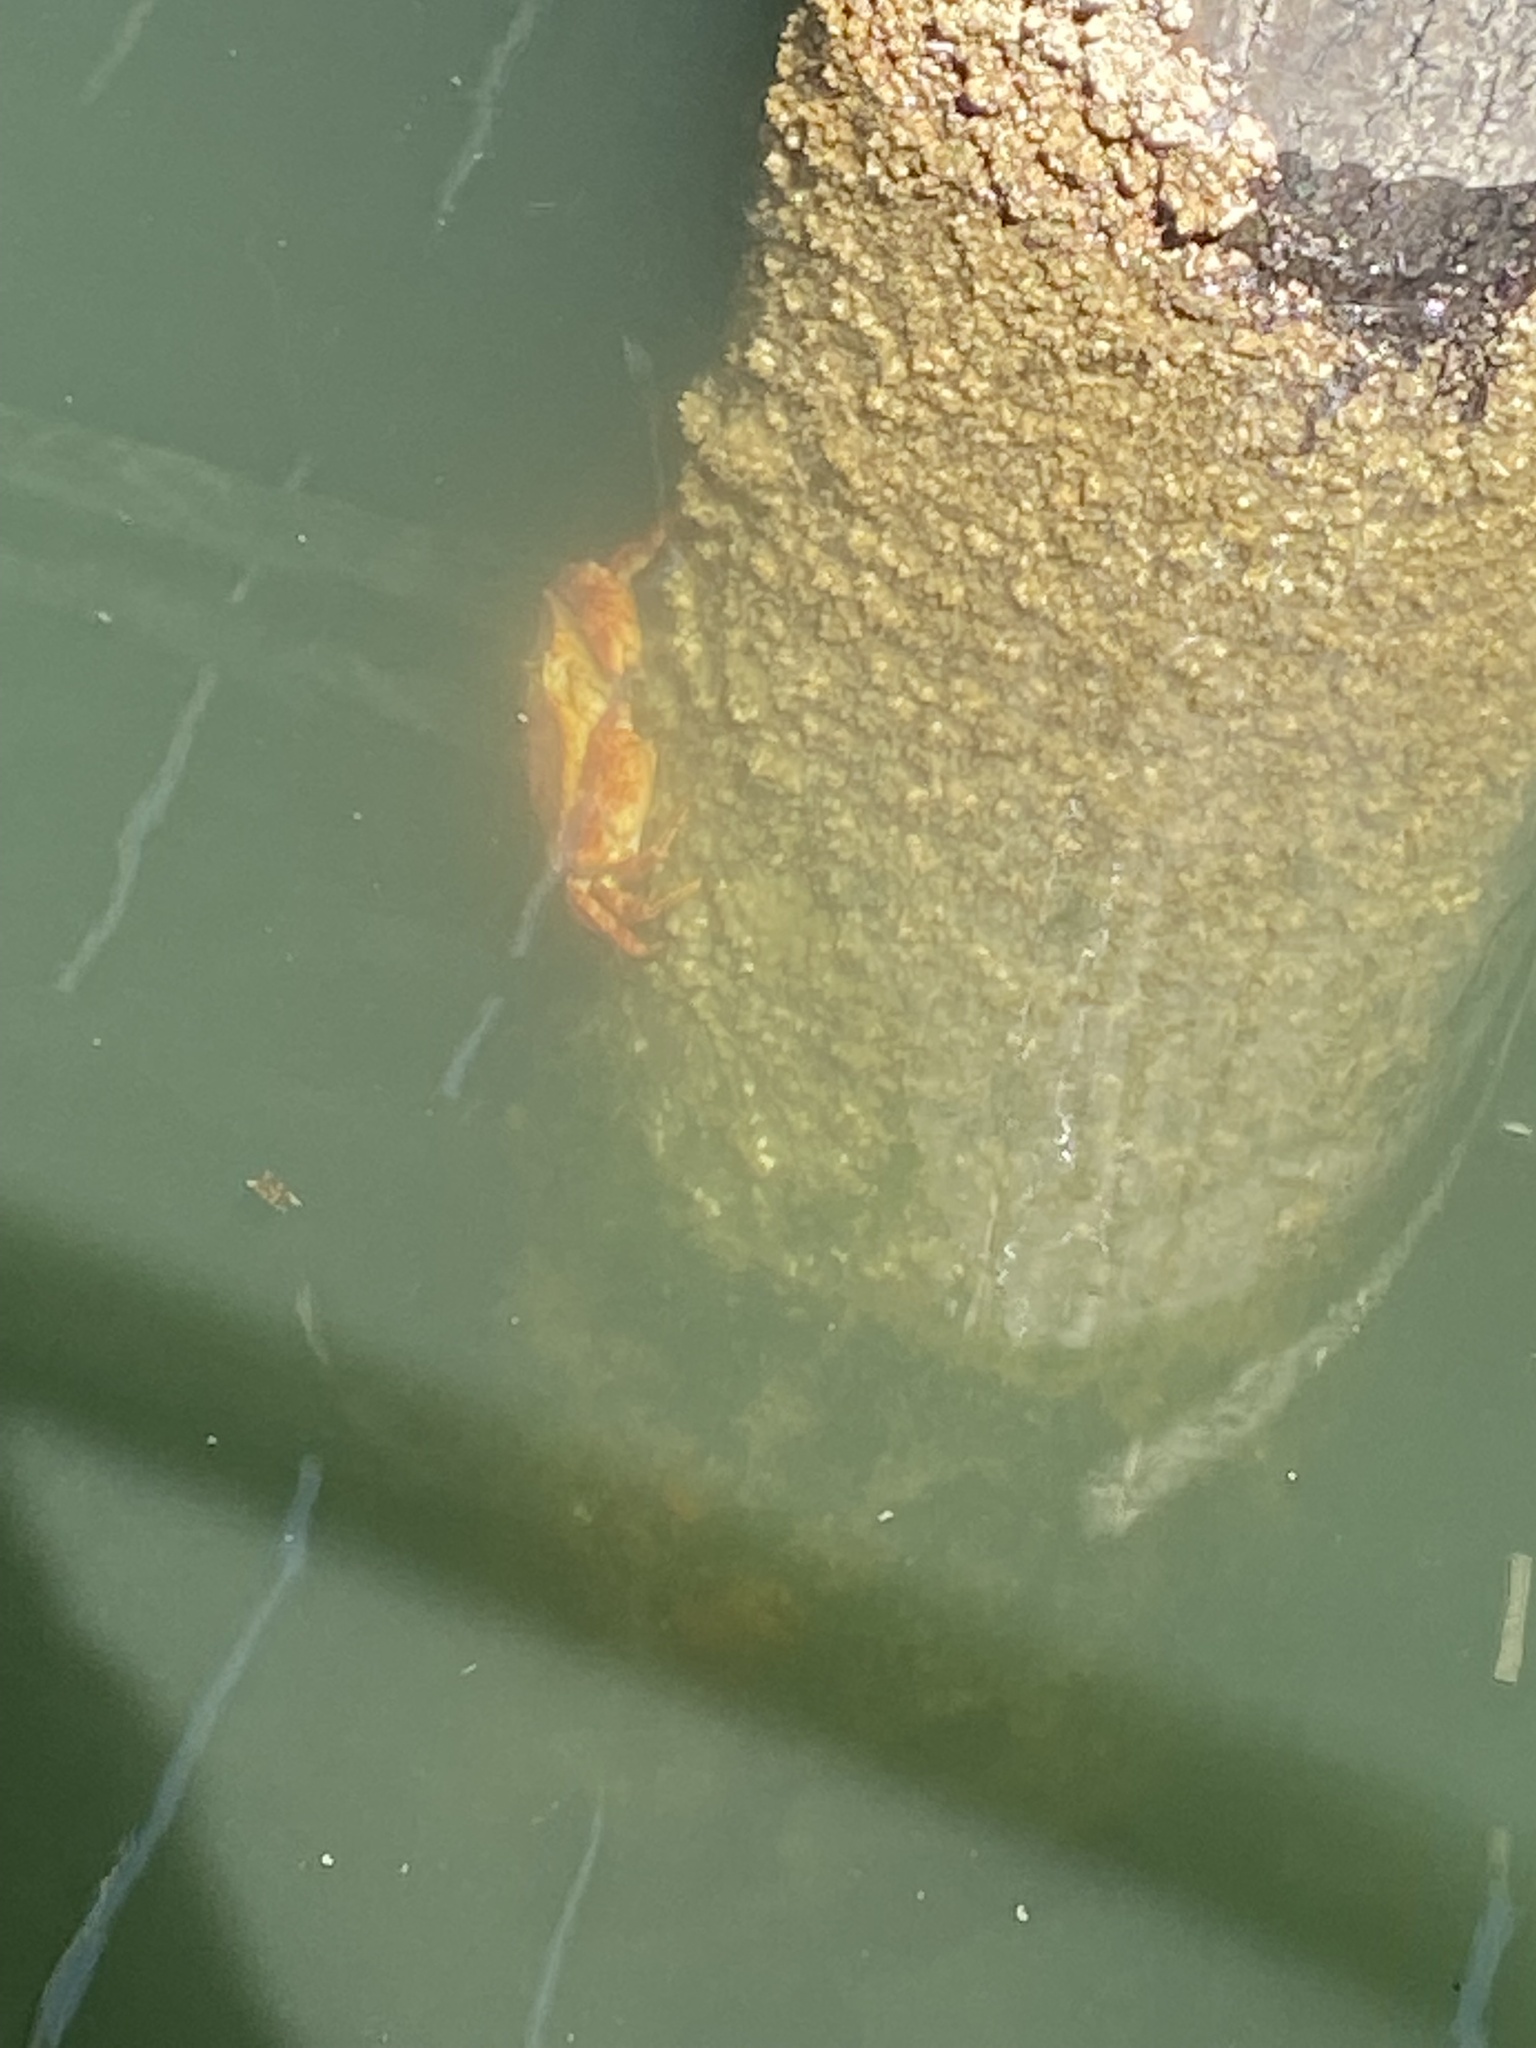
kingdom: Animalia
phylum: Arthropoda
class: Malacostraca
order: Decapoda
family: Cancridae
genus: Cancer
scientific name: Cancer productus
